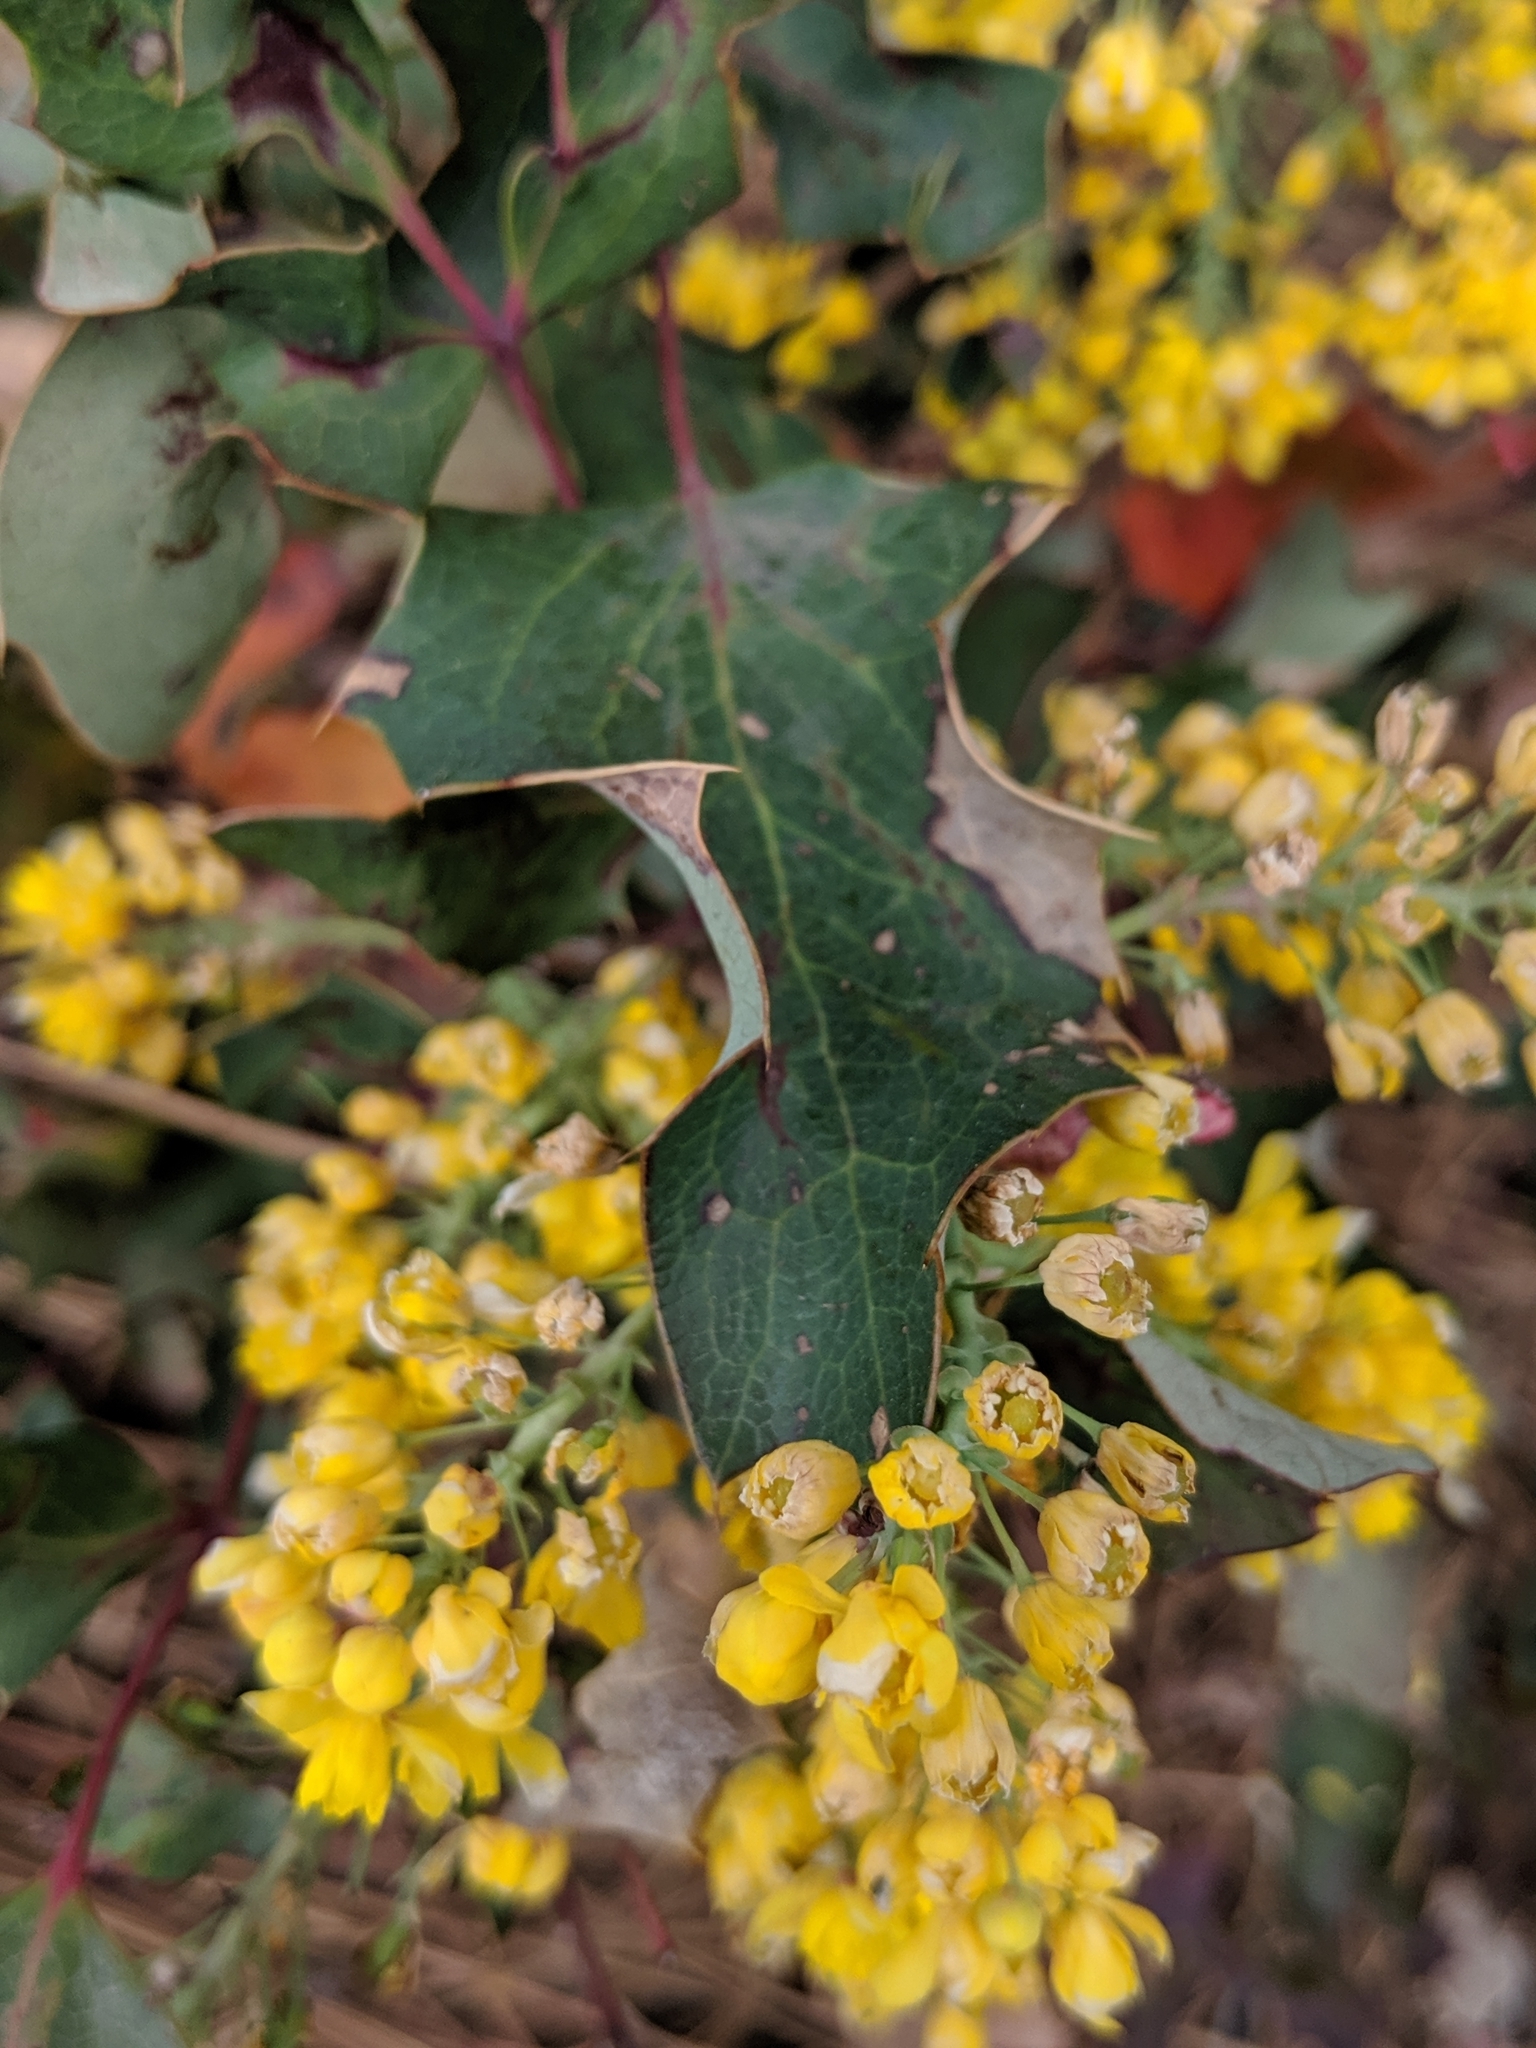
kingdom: Plantae
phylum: Tracheophyta
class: Magnoliopsida
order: Ranunculales
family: Berberidaceae
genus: Mahonia
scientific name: Mahonia aquifolium
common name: Oregon-grape
